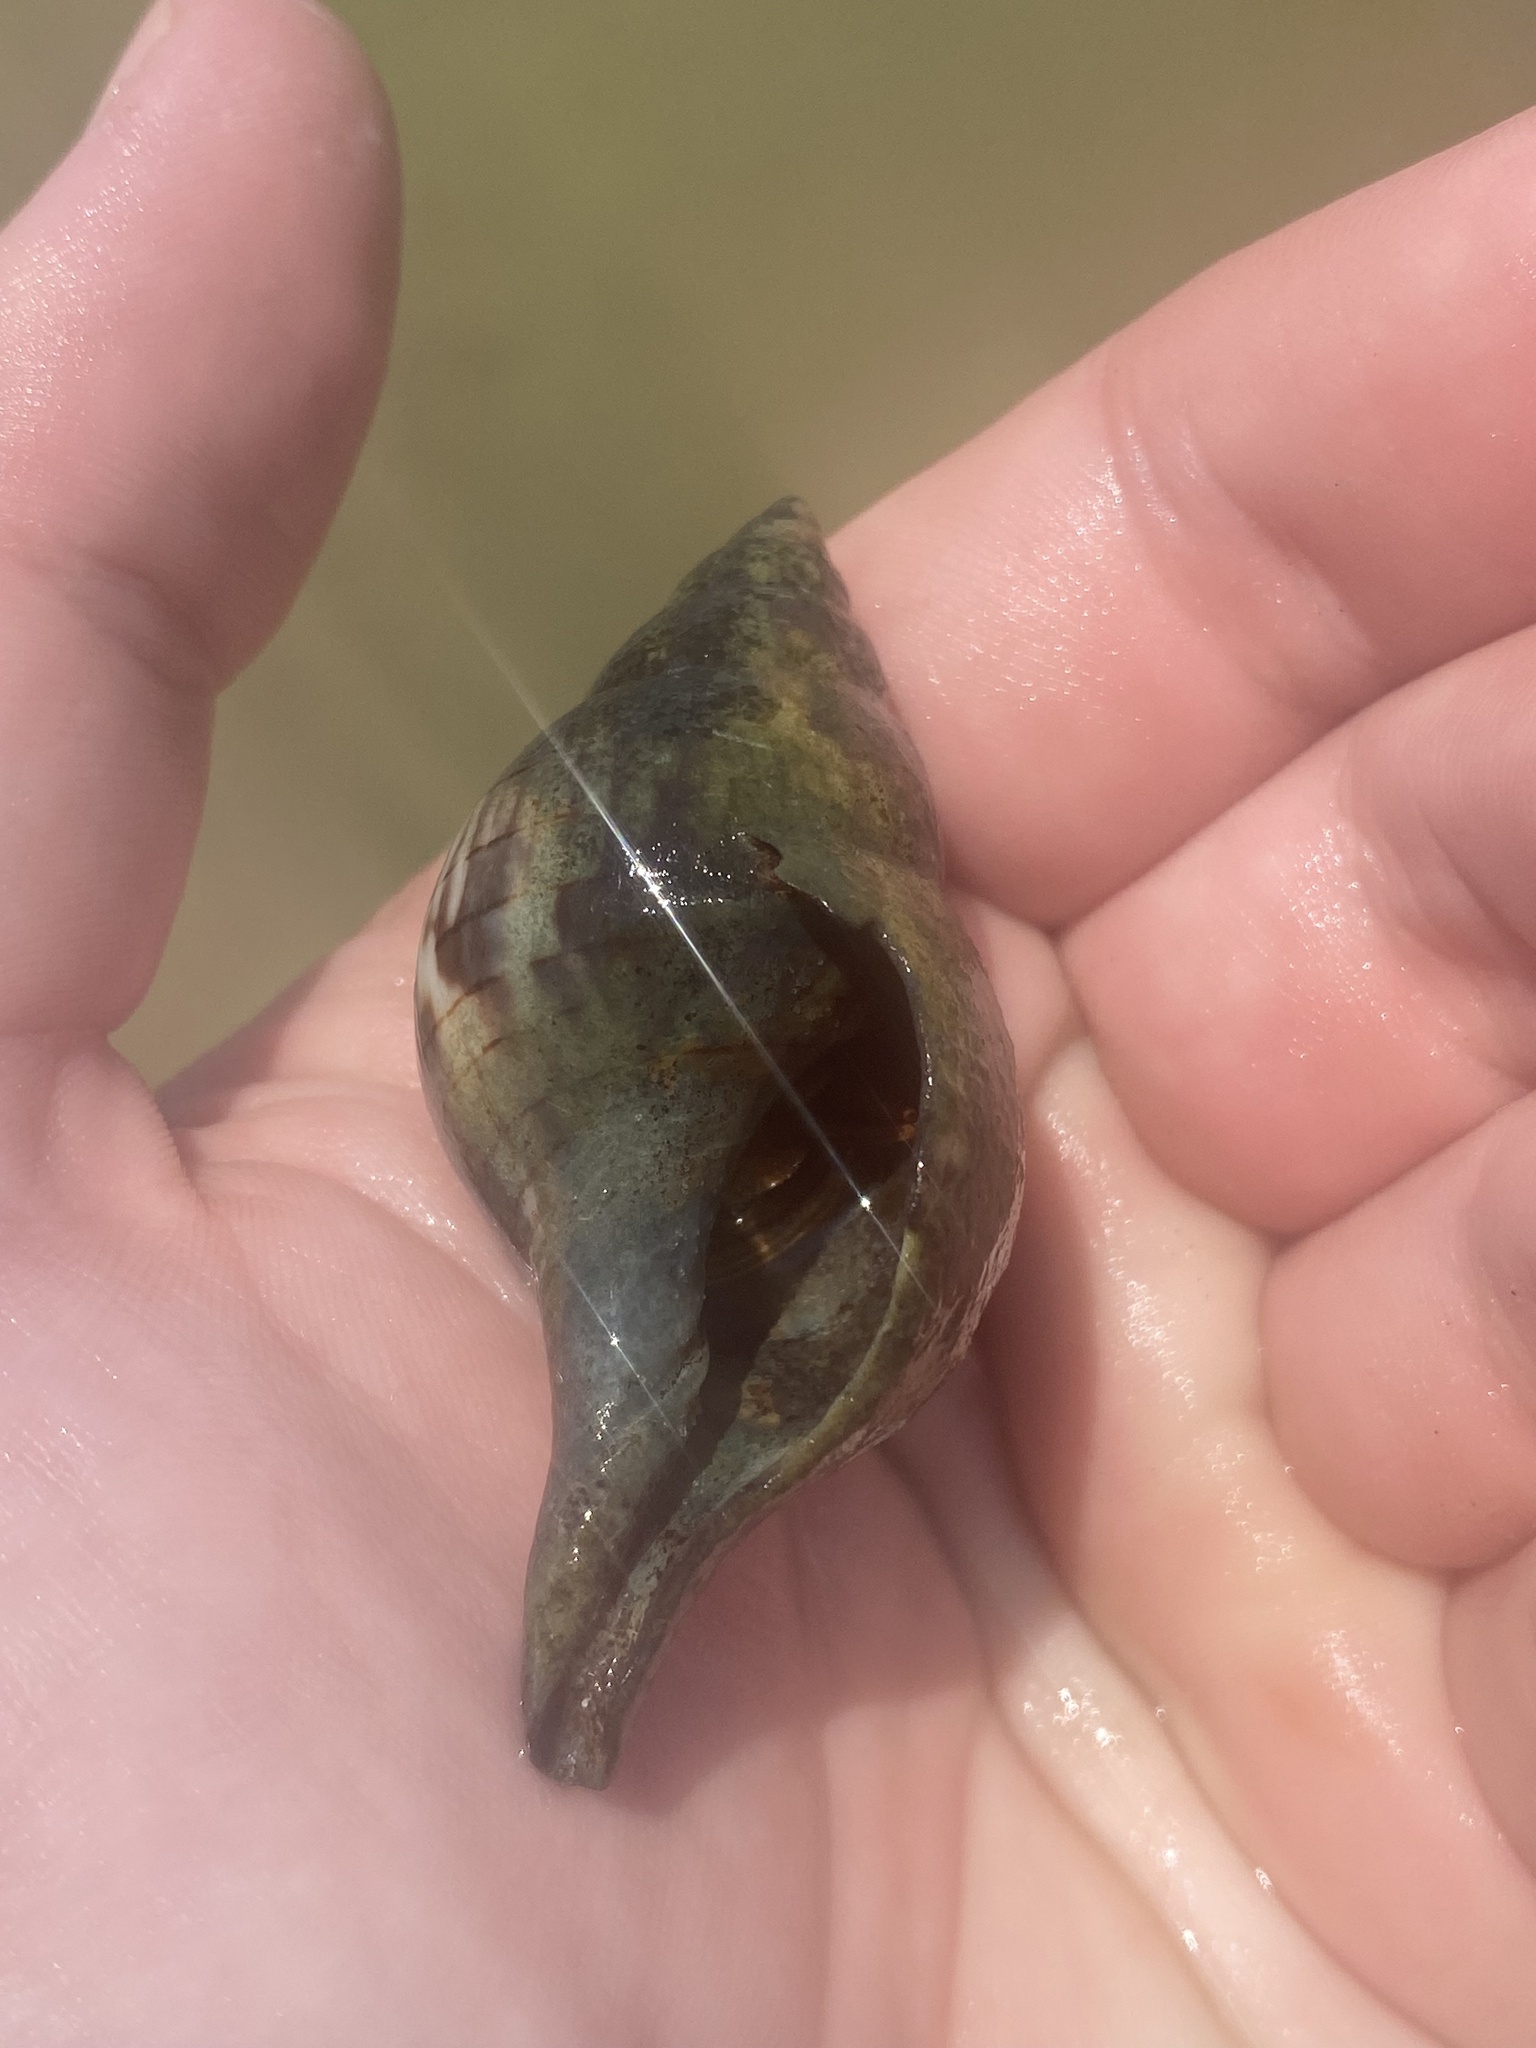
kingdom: Animalia
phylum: Mollusca
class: Gastropoda
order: Neogastropoda
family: Fasciolariidae
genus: Cinctura
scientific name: Cinctura hunteria
